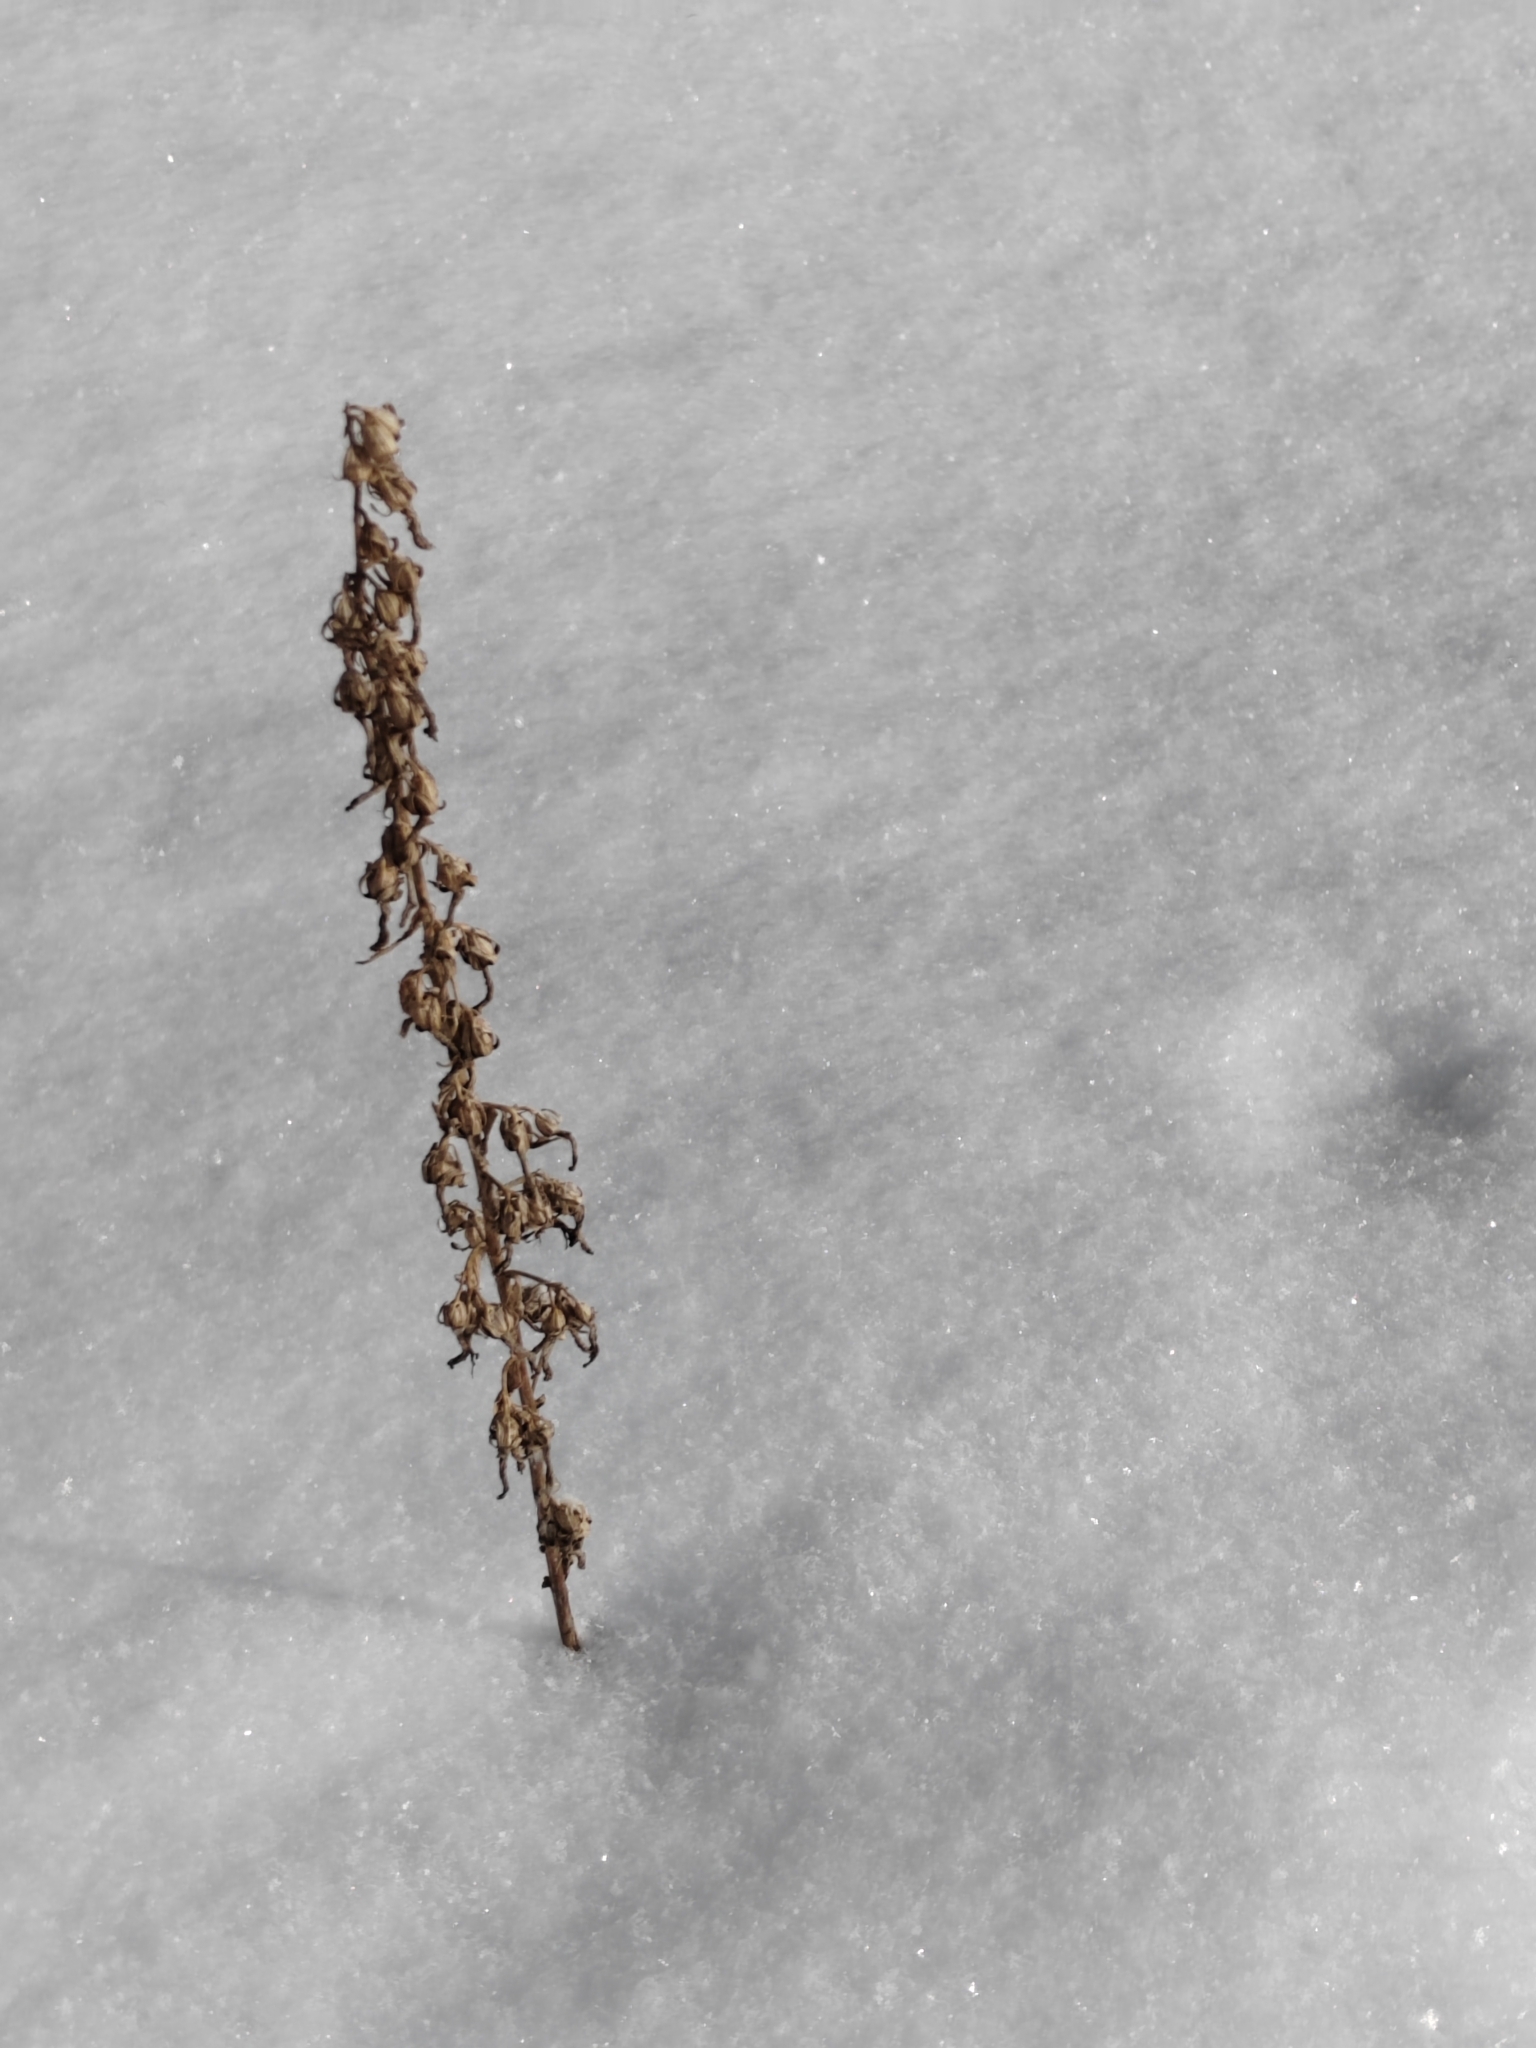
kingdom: Plantae
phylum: Tracheophyta
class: Magnoliopsida
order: Asterales
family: Campanulaceae
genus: Campanula
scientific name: Campanula rapunculoides
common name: Creeping bellflower
